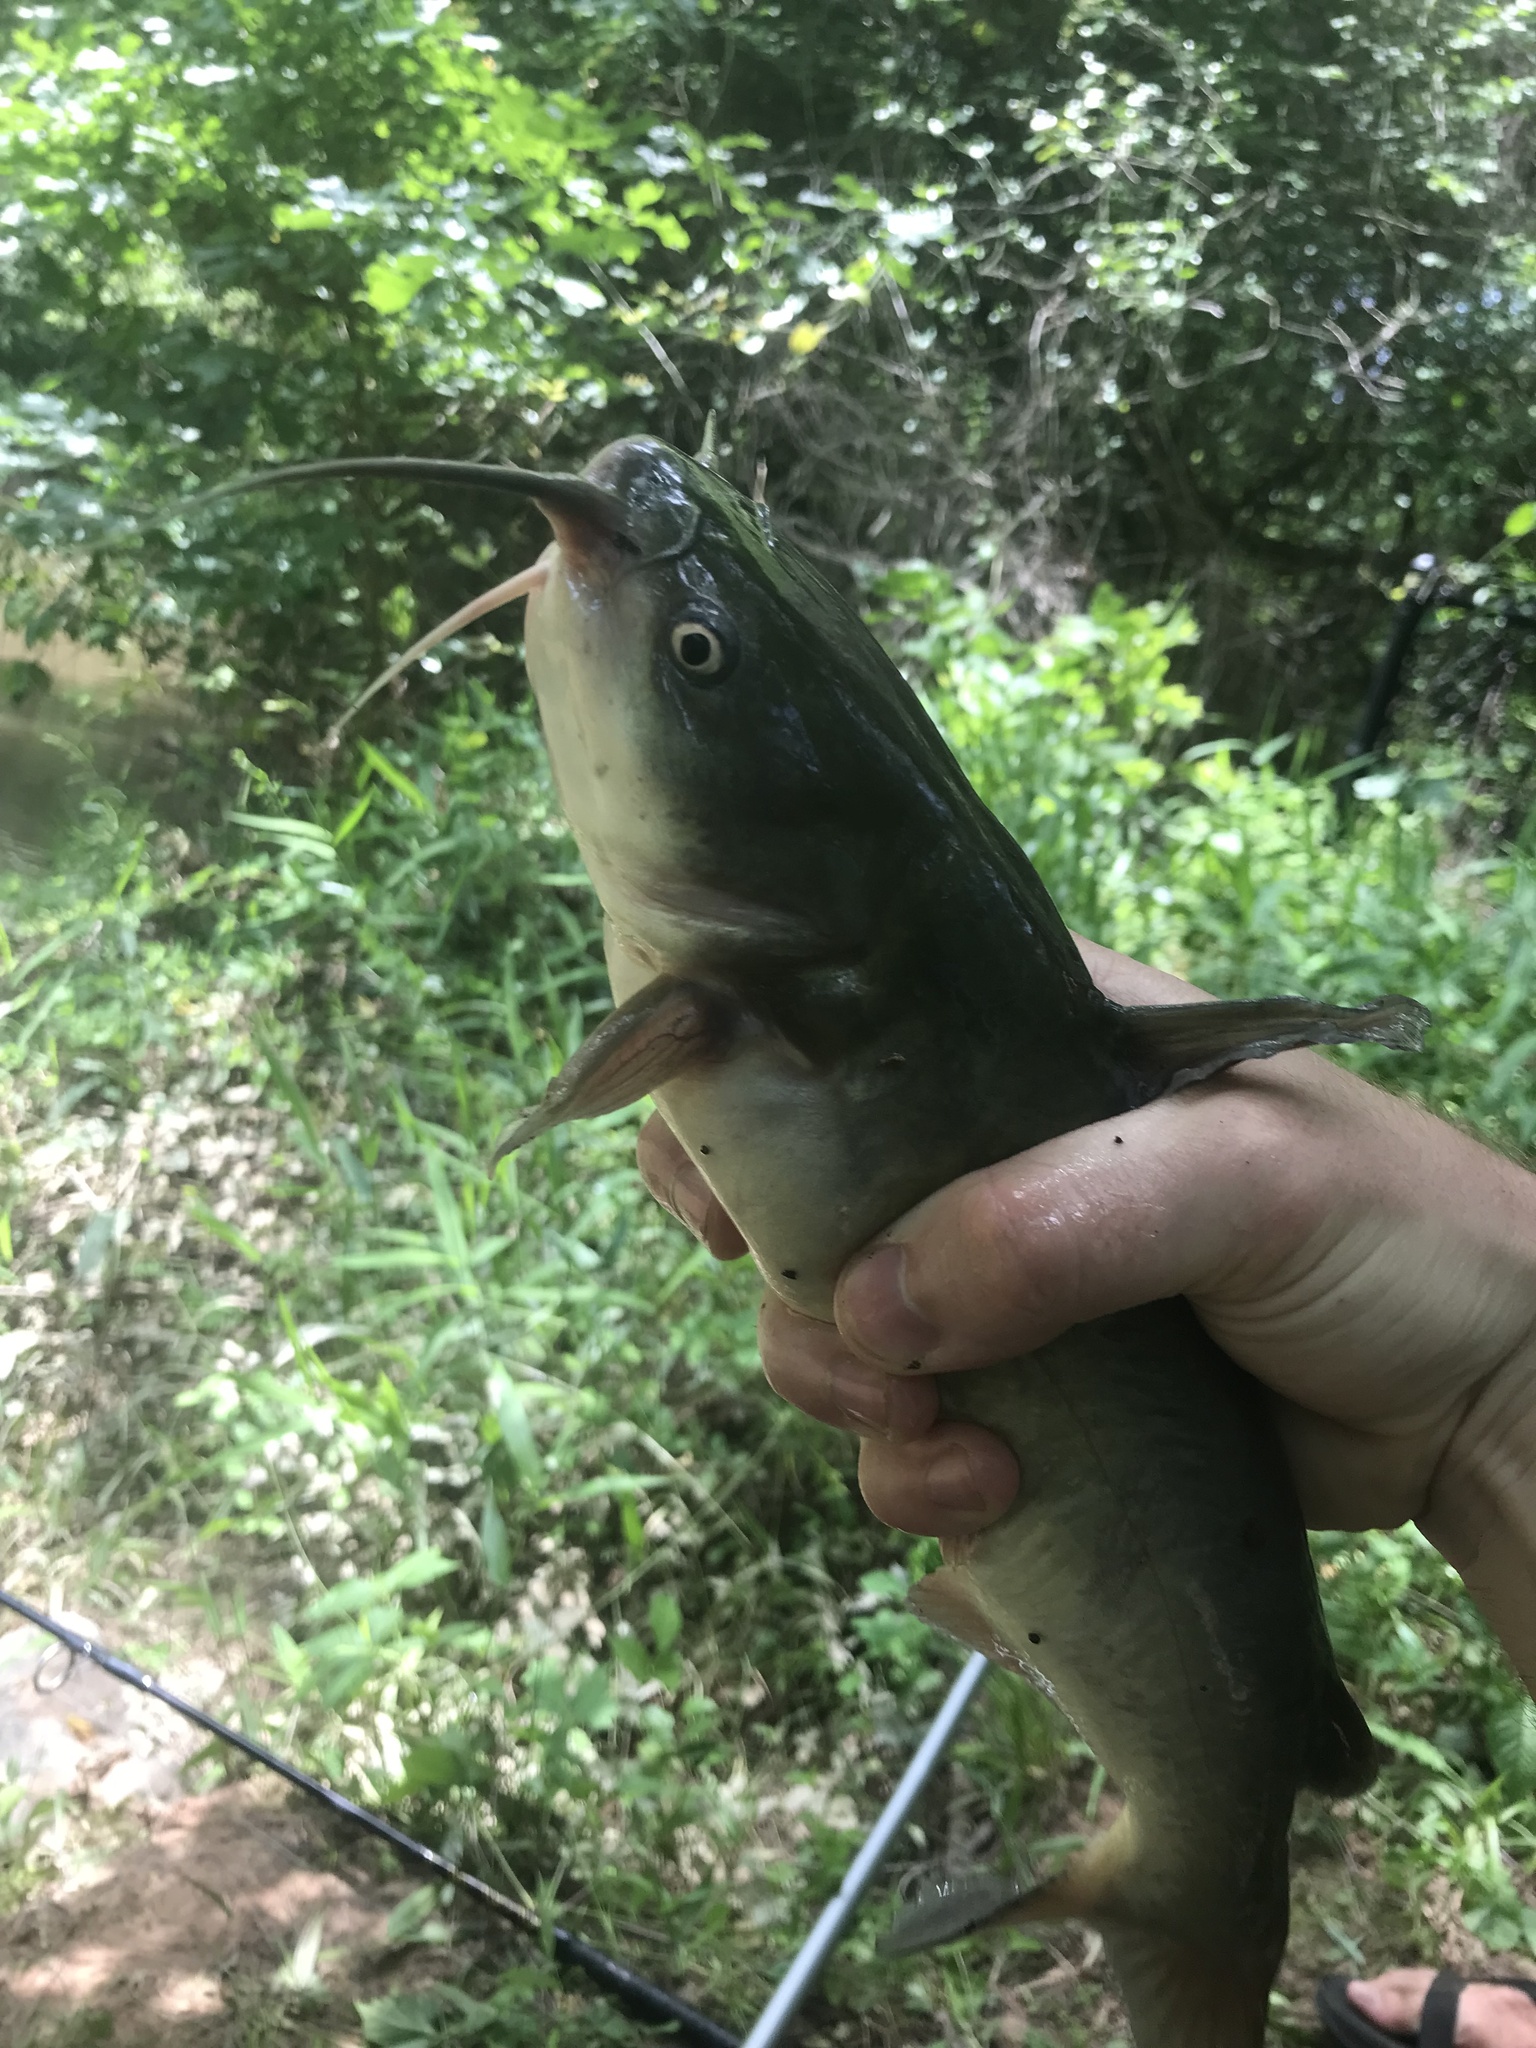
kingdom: Animalia
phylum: Chordata
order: Siluriformes
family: Ictaluridae
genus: Ameiurus
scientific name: Ameiurus catus
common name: White catfish
